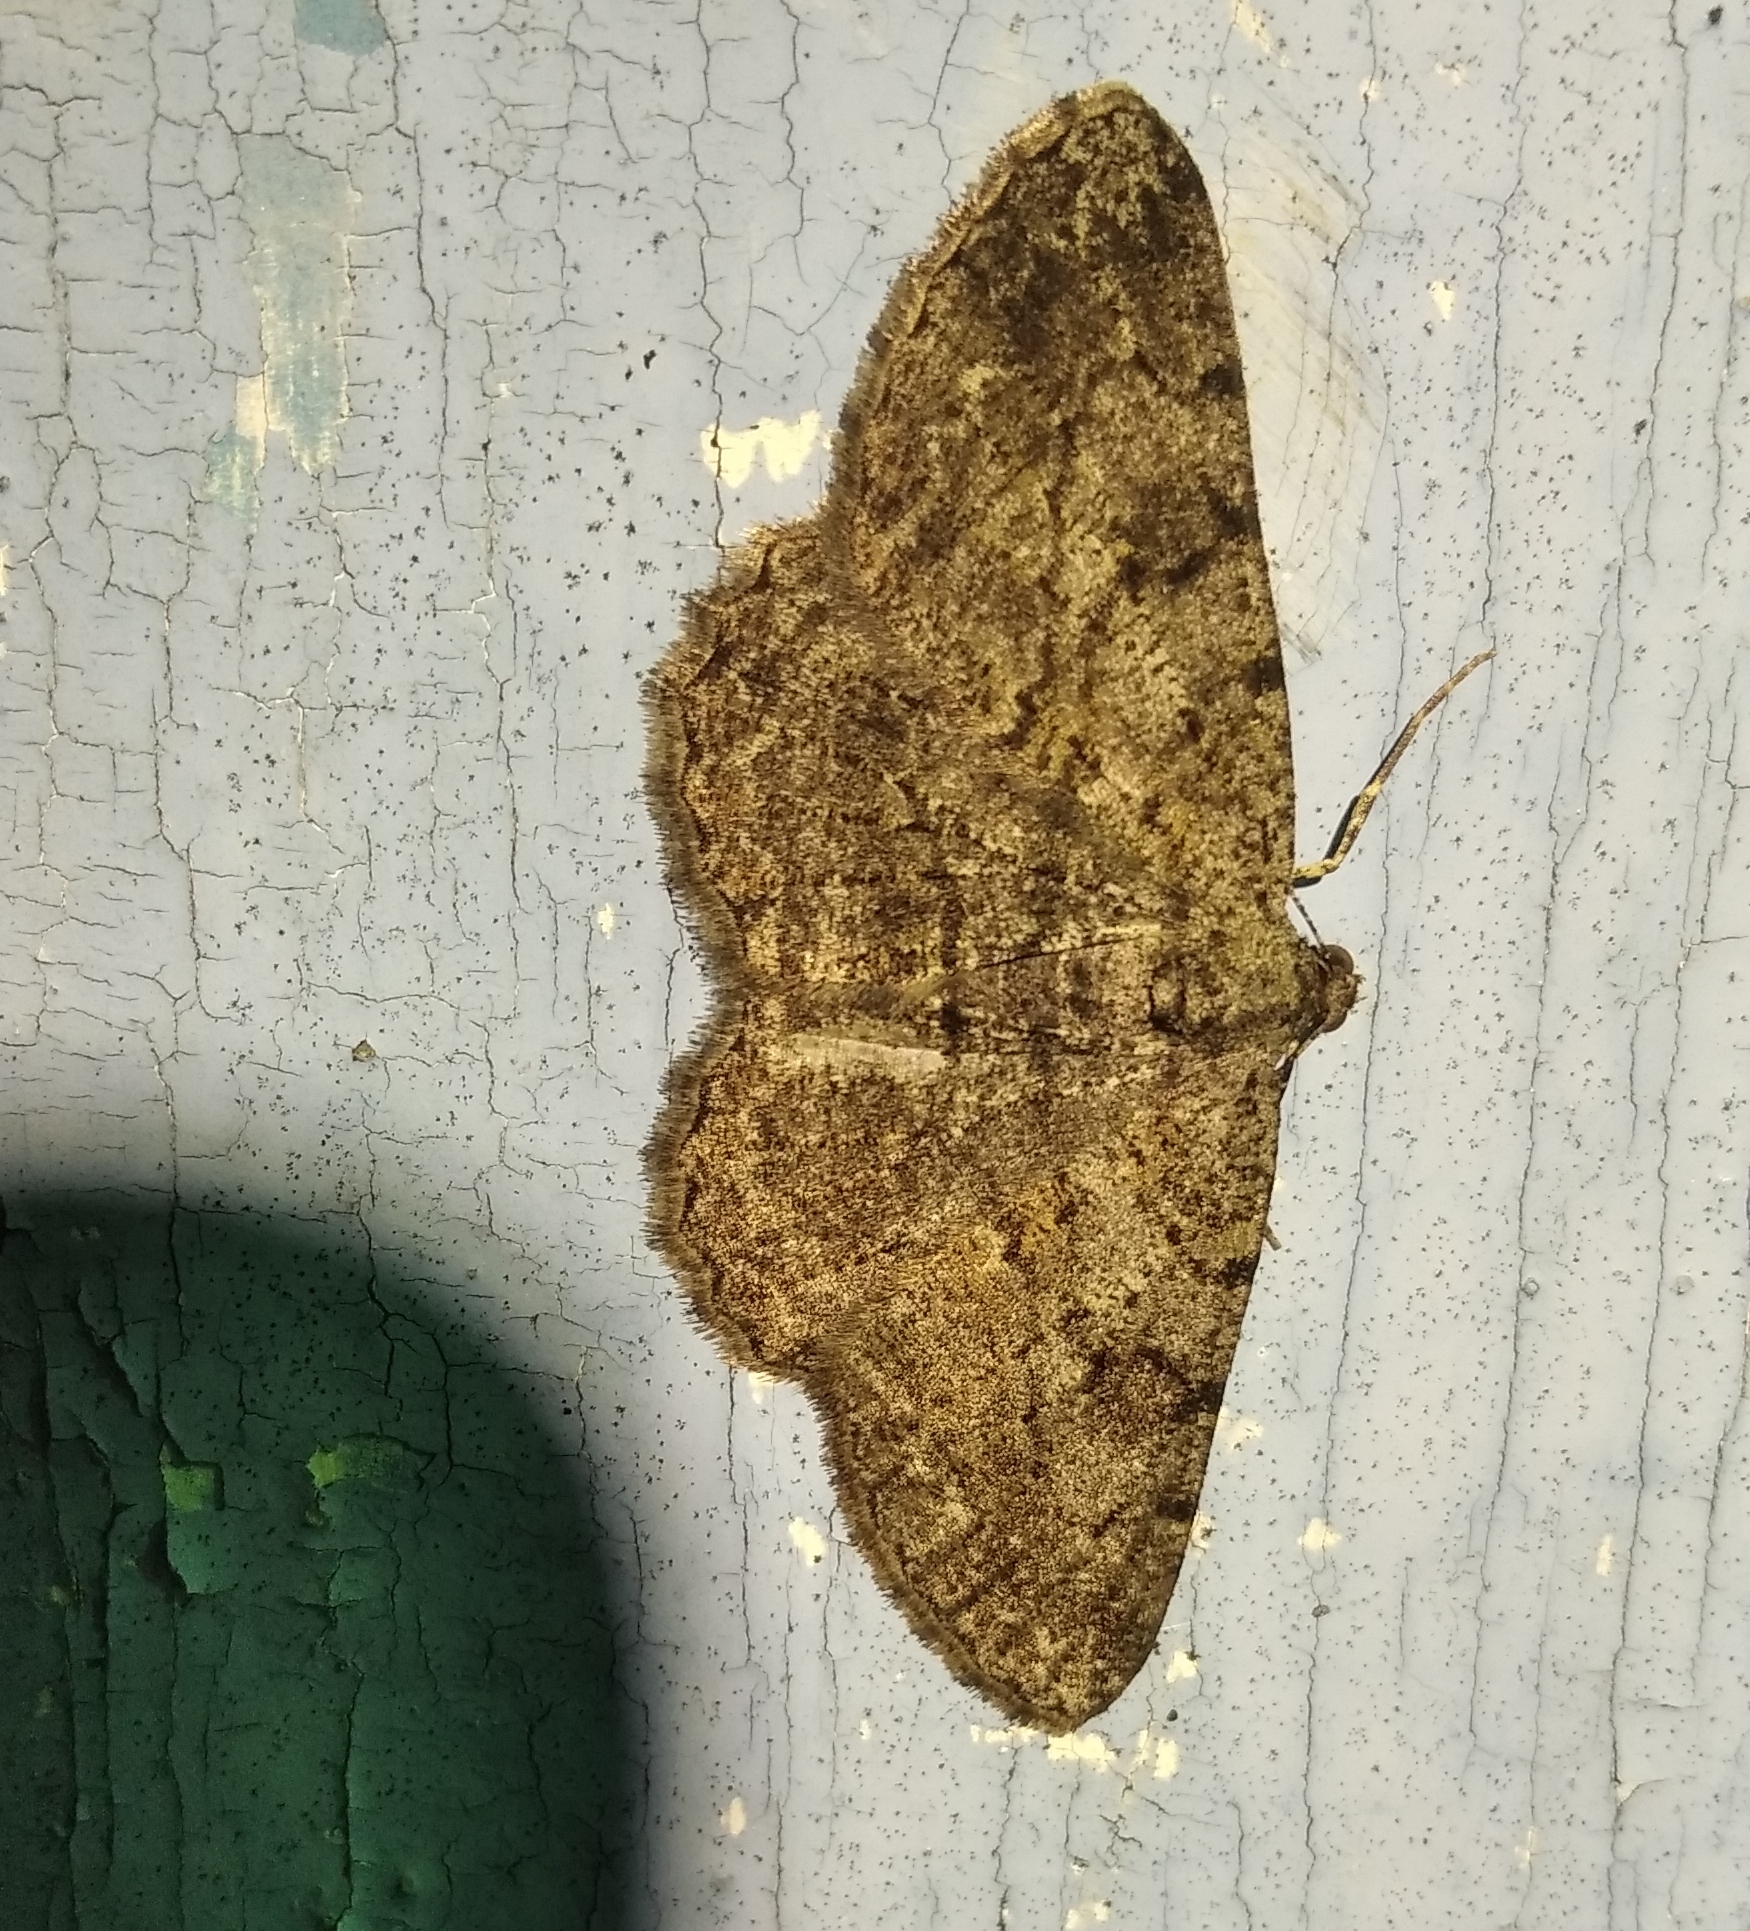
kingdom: Animalia
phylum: Arthropoda
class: Insecta
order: Lepidoptera
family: Geometridae
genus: Peribatodes
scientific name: Peribatodes rhomboidaria
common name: Willow beauty
